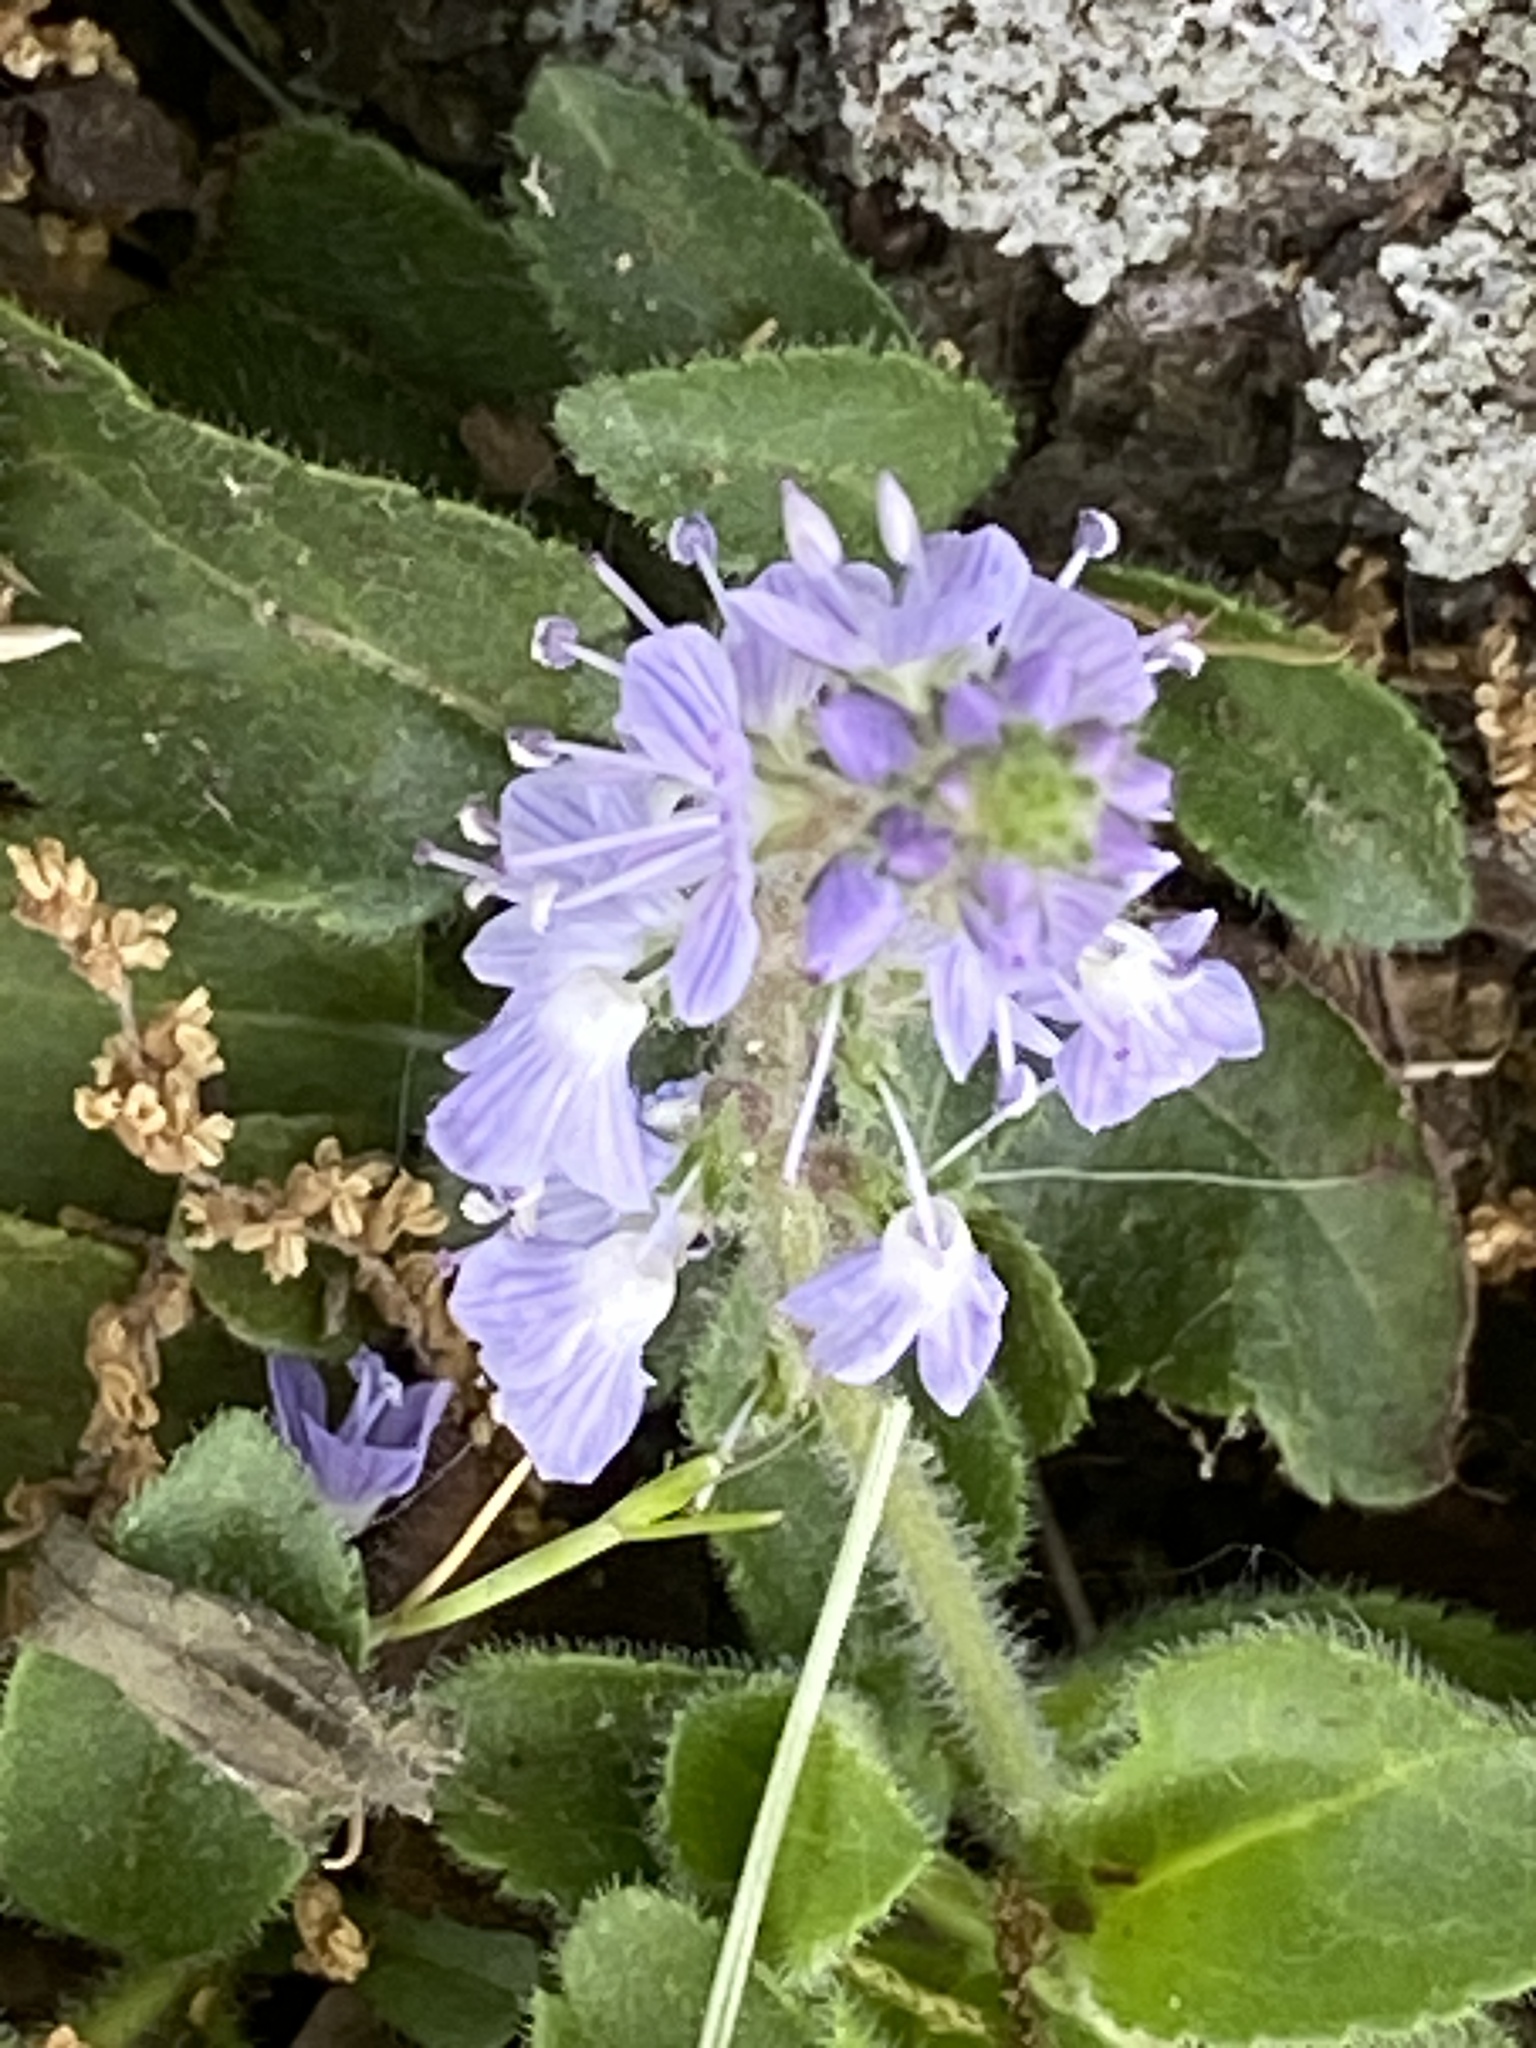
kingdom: Plantae
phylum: Tracheophyta
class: Magnoliopsida
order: Lamiales
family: Plantaginaceae
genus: Veronica
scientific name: Veronica officinalis
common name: Common speedwell
